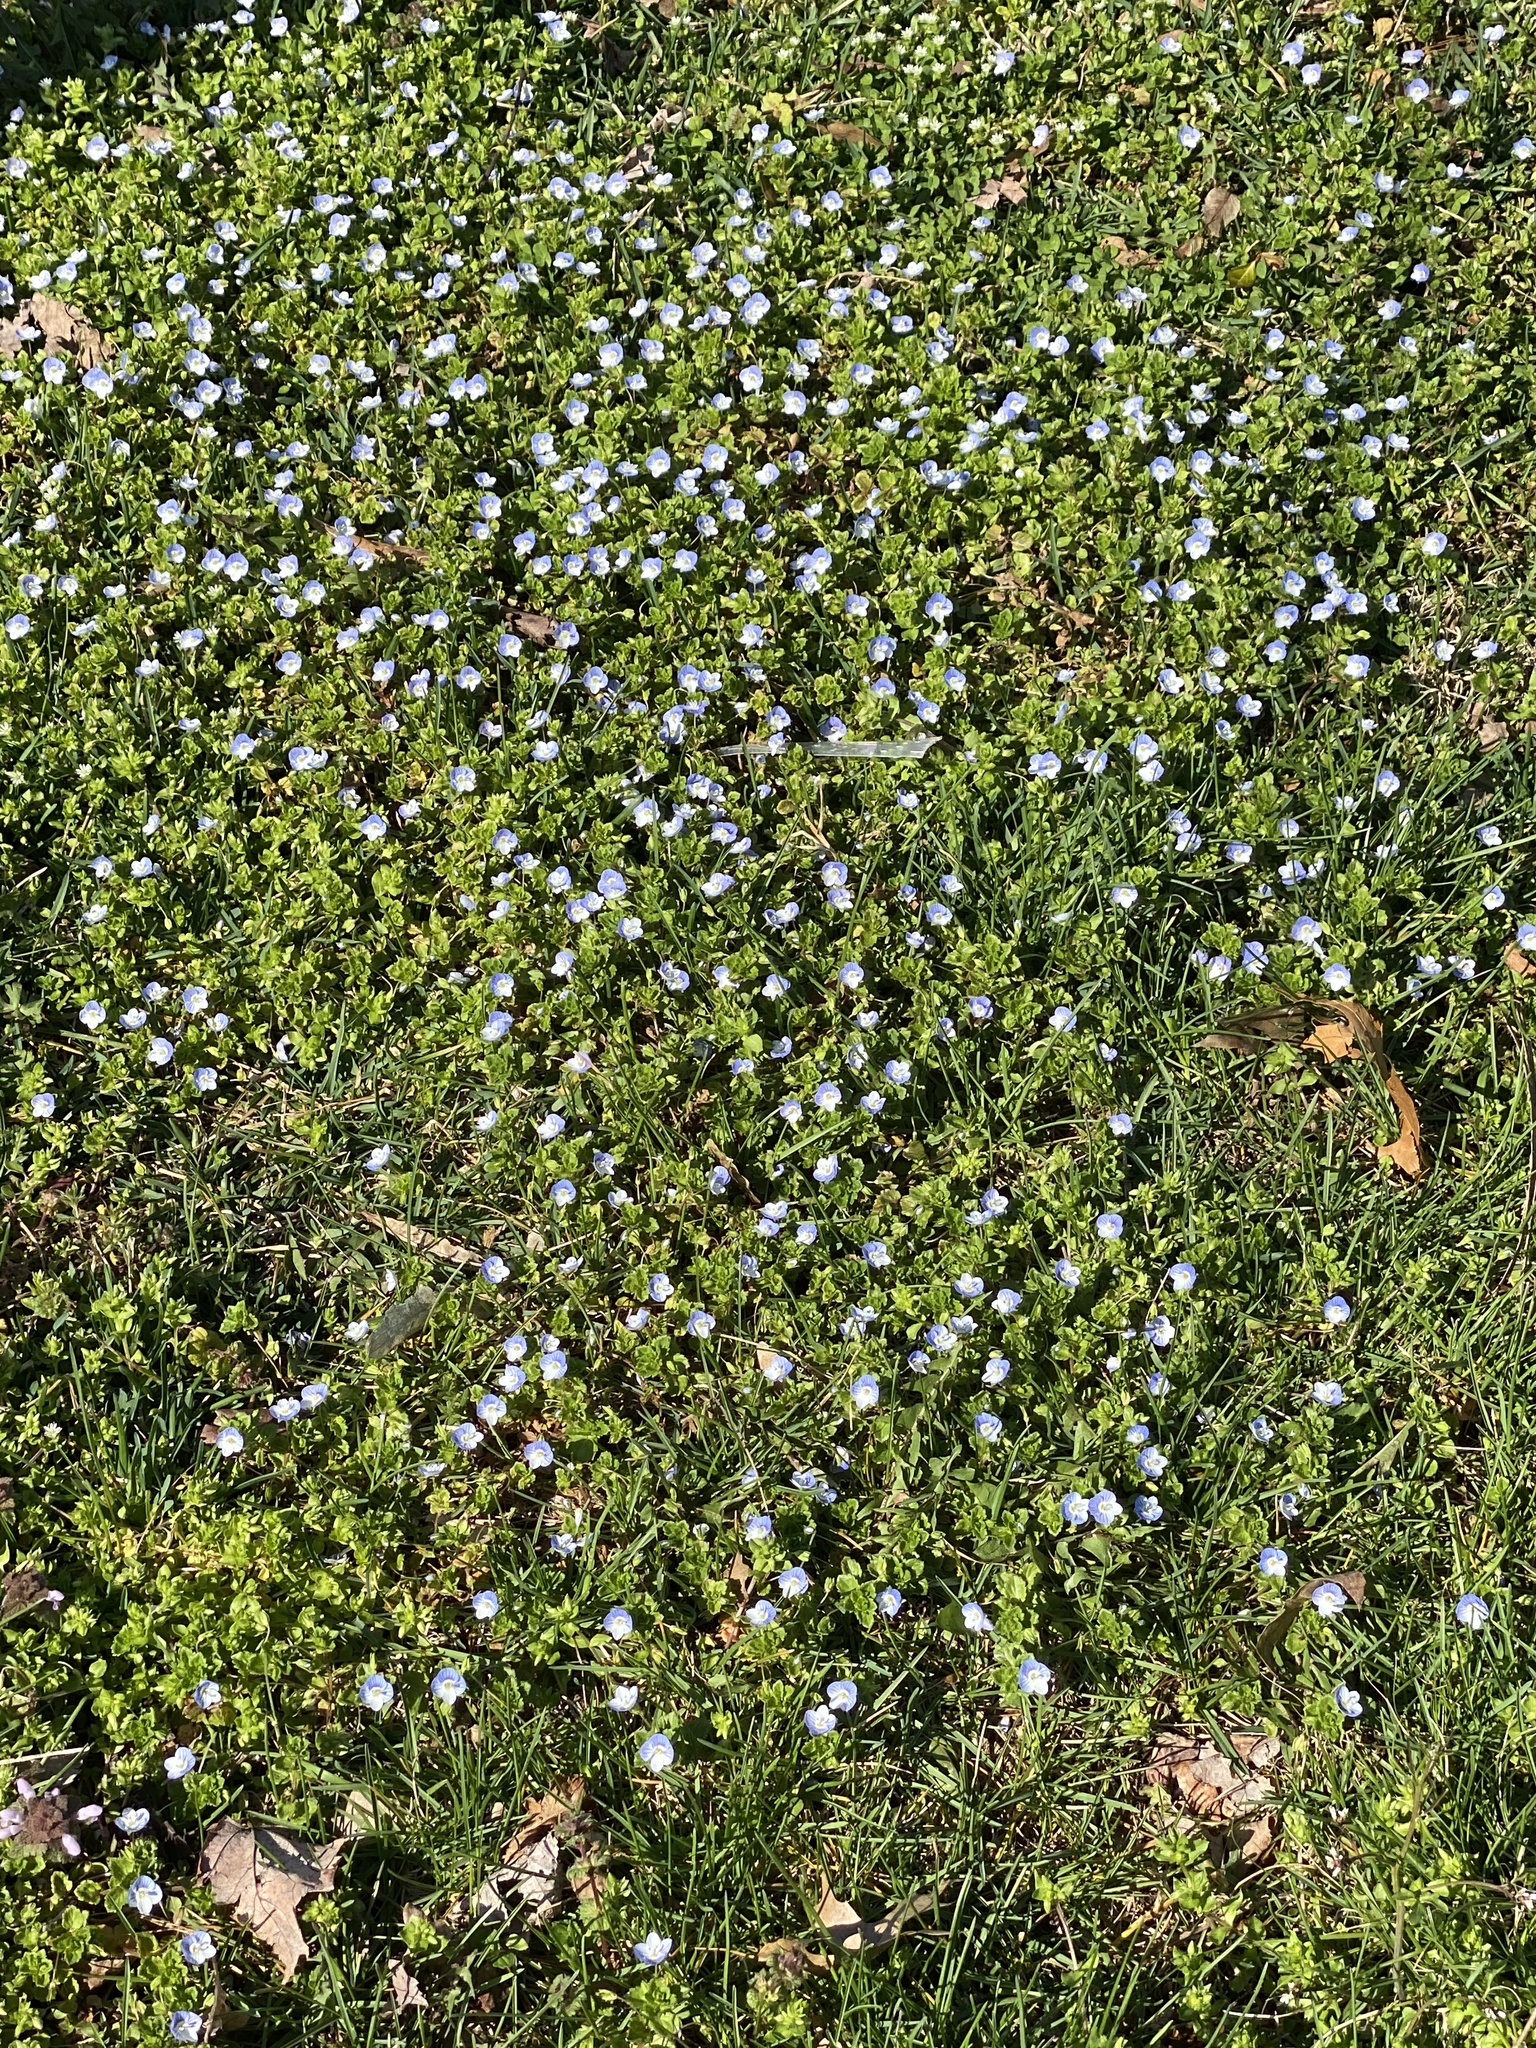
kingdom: Plantae
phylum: Tracheophyta
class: Magnoliopsida
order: Lamiales
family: Plantaginaceae
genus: Veronica
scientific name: Veronica persica
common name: Common field-speedwell
